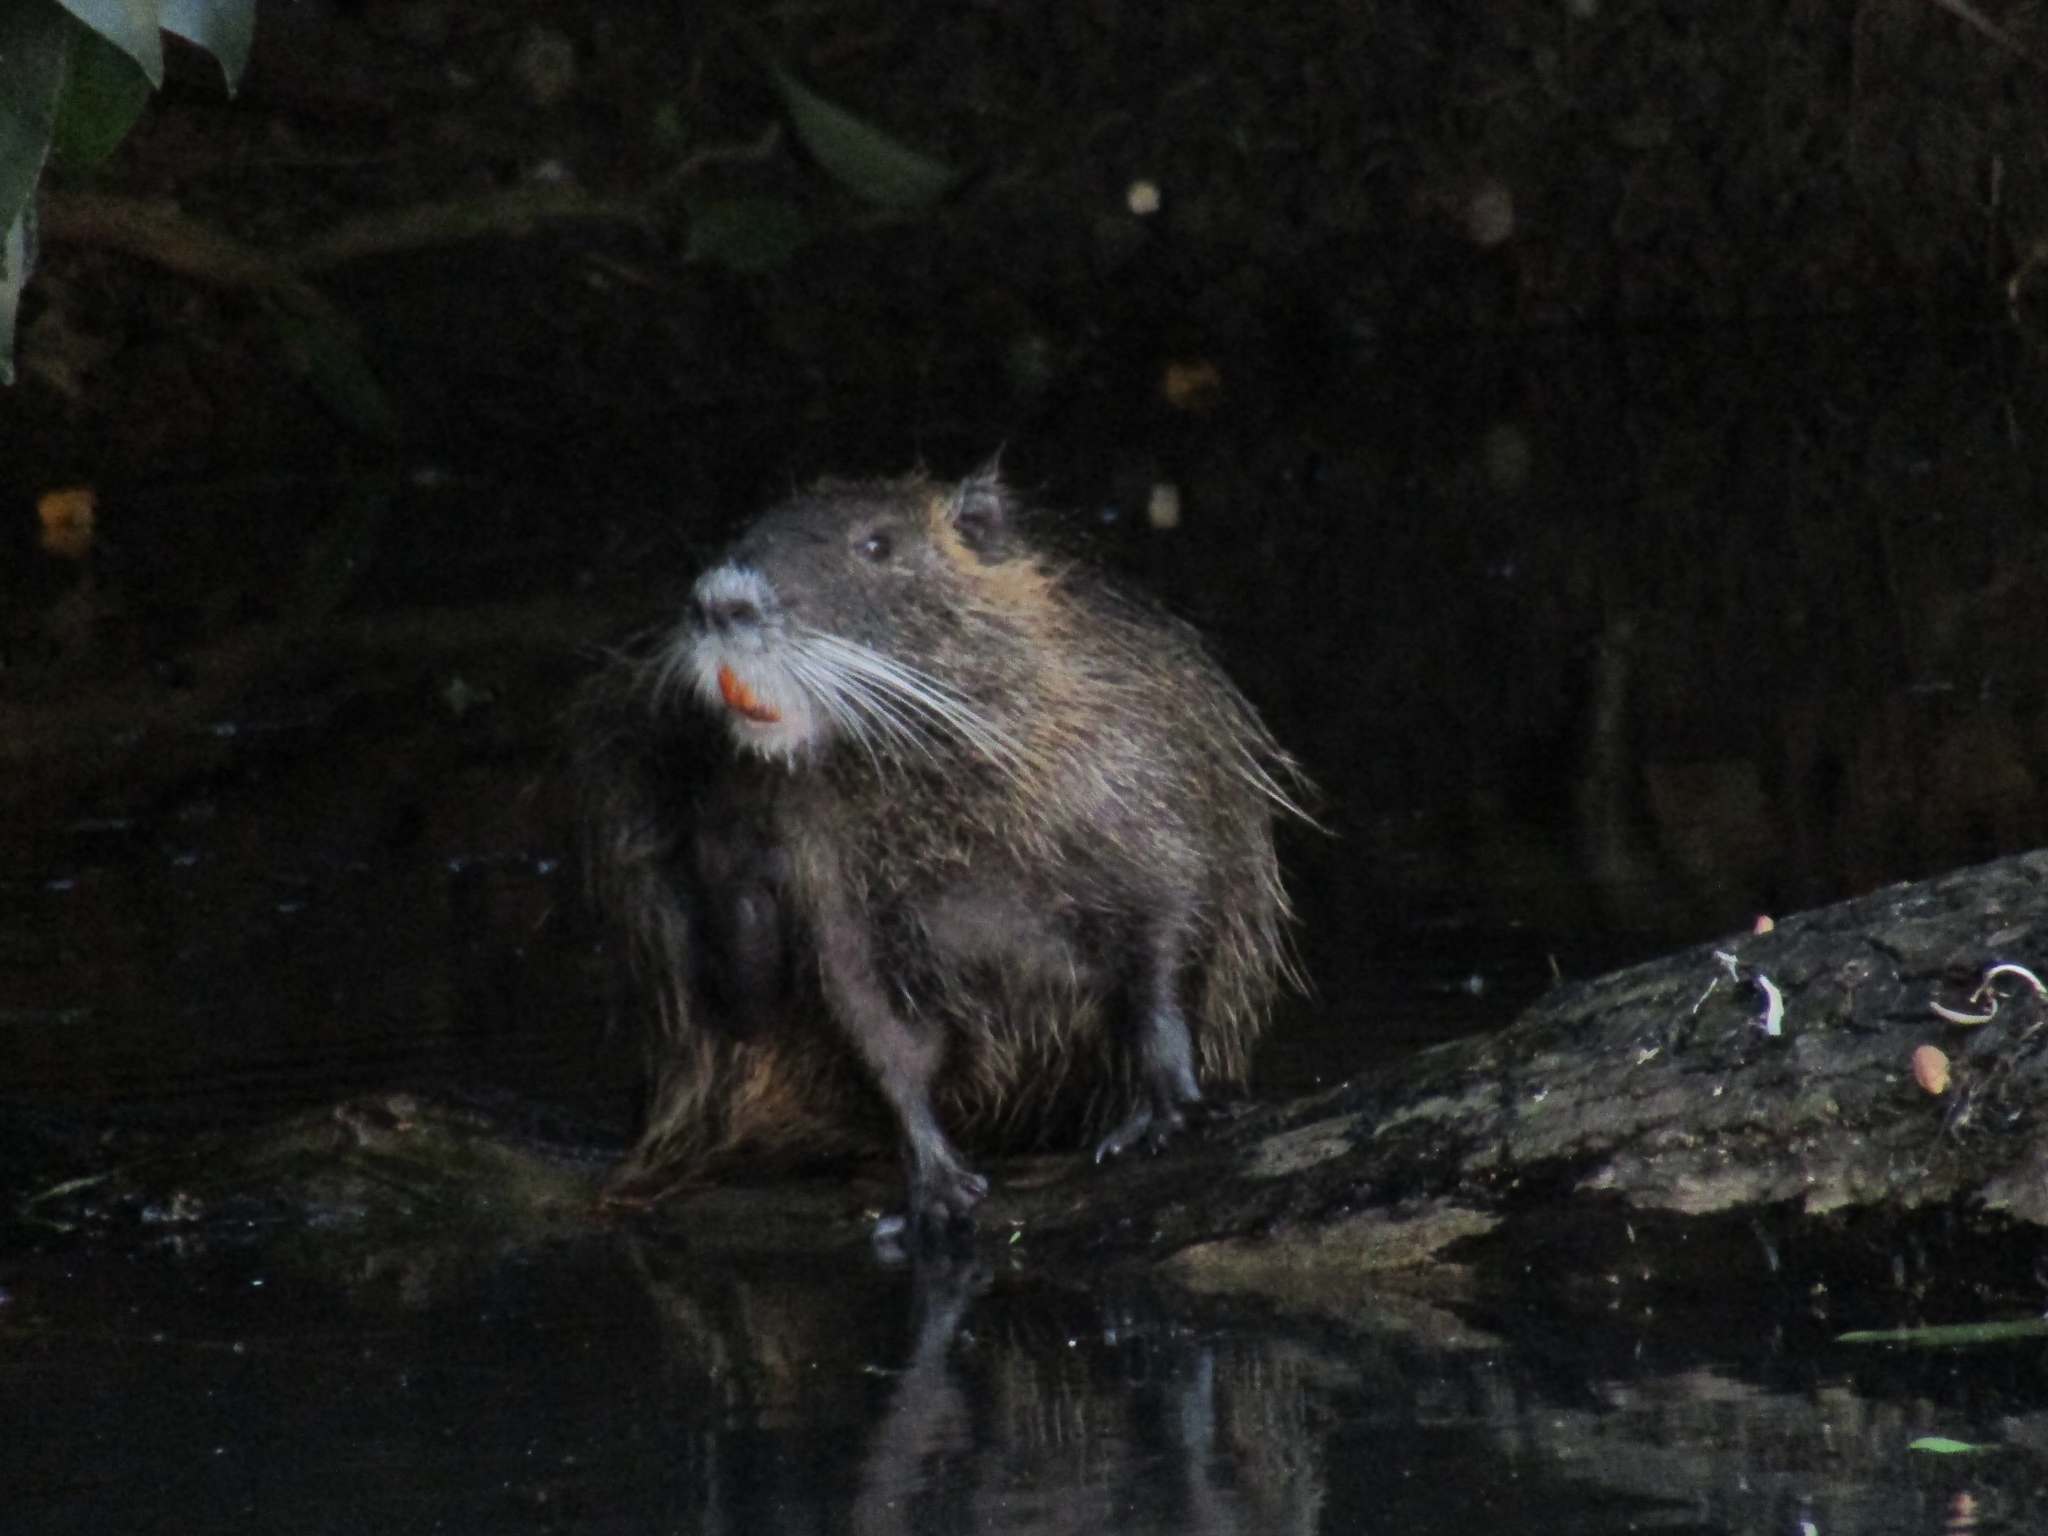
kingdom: Animalia
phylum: Chordata
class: Mammalia
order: Rodentia
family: Myocastoridae
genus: Myocastor
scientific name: Myocastor coypus
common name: Coypu
